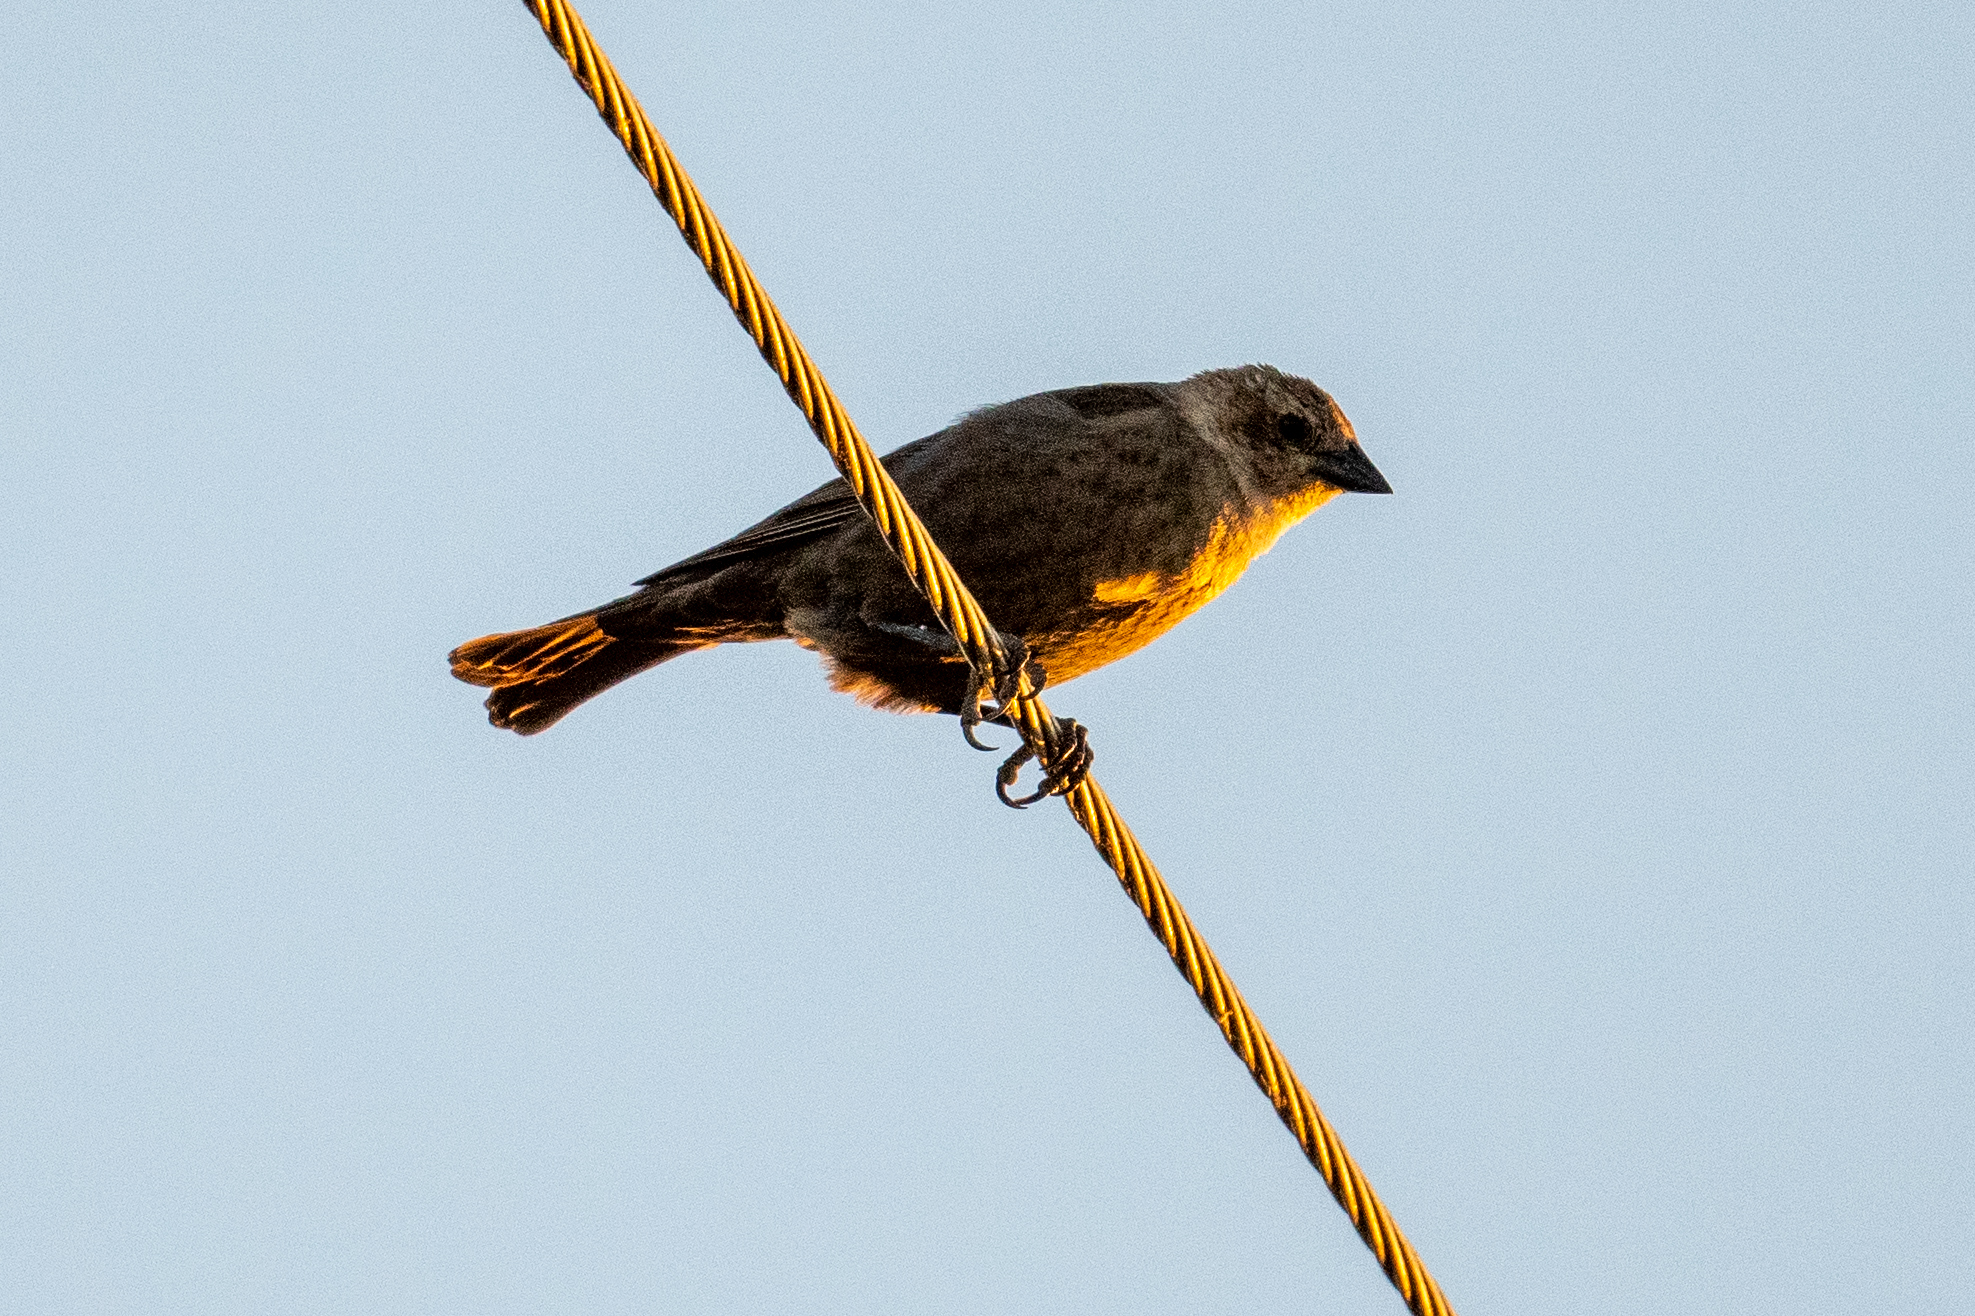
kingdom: Animalia
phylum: Chordata
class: Aves
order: Passeriformes
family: Icteridae
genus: Molothrus
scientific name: Molothrus ater
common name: Brown-headed cowbird
